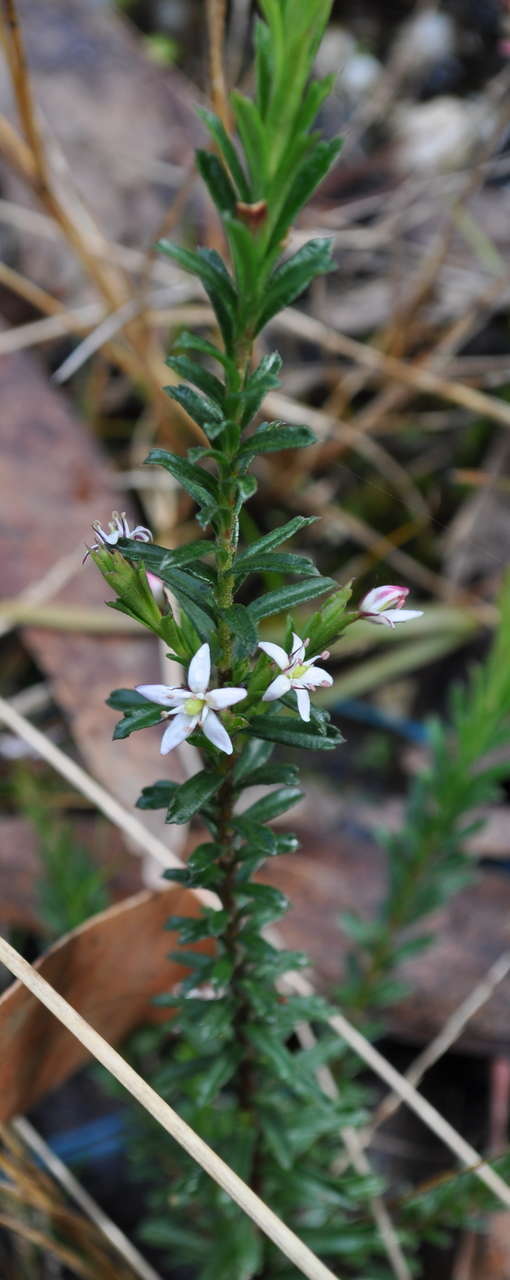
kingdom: Plantae
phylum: Tracheophyta
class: Magnoliopsida
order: Apiales
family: Pittosporaceae
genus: Rhytidosporum
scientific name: Rhytidosporum procumbens
